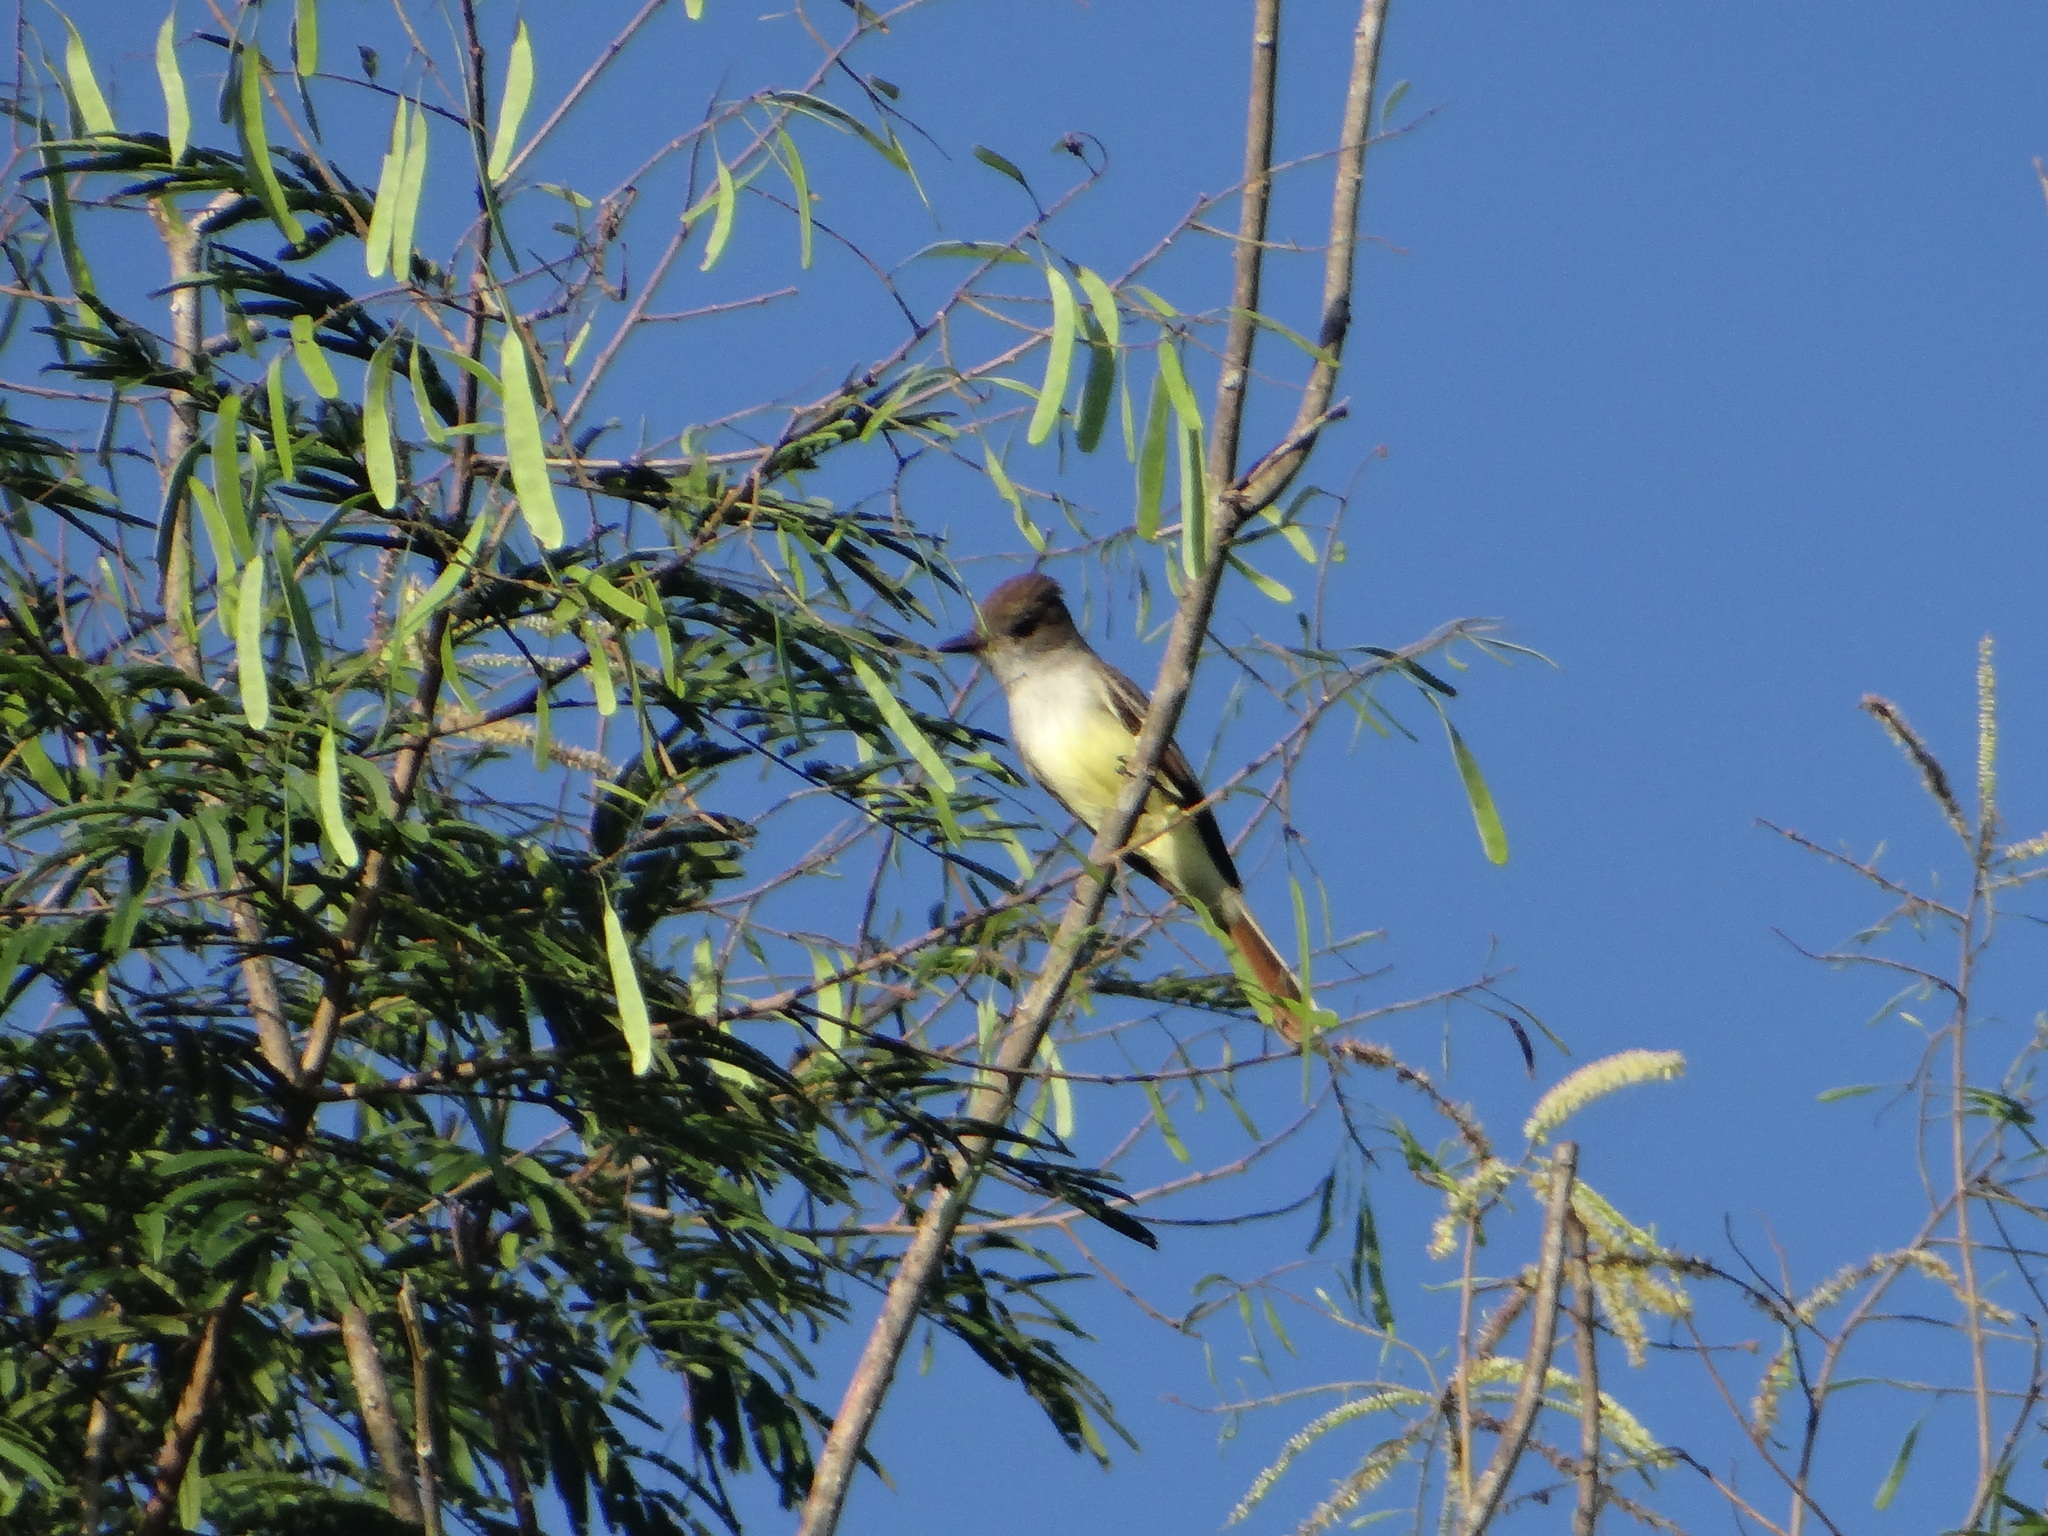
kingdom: Animalia
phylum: Chordata
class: Aves
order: Passeriformes
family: Tyrannidae
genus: Myiarchus
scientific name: Myiarchus tyrannulus
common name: Brown-crested flycatcher
